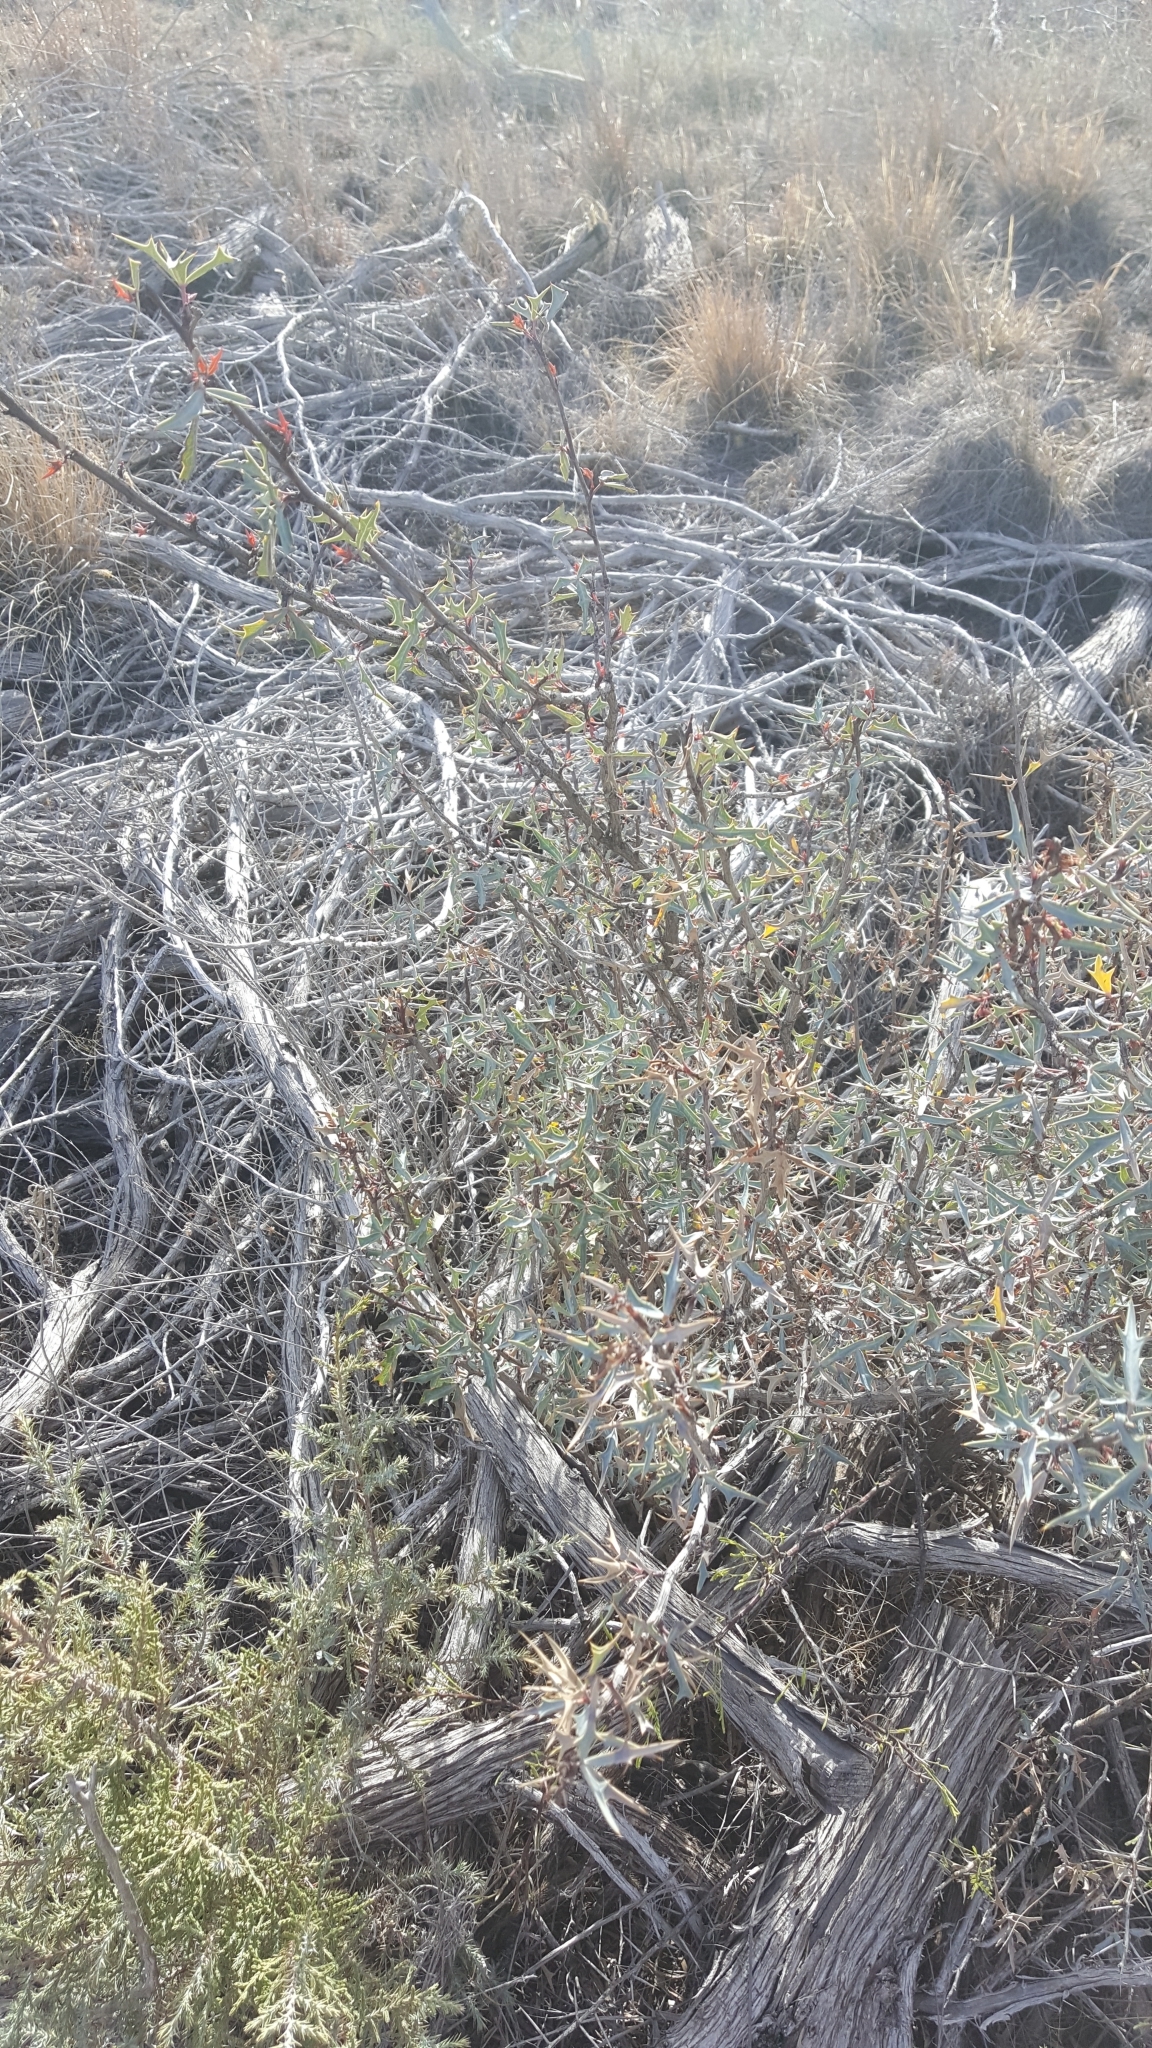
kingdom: Plantae
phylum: Tracheophyta
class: Magnoliopsida
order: Ranunculales
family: Berberidaceae
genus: Alloberberis
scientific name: Alloberberis trifoliolata
